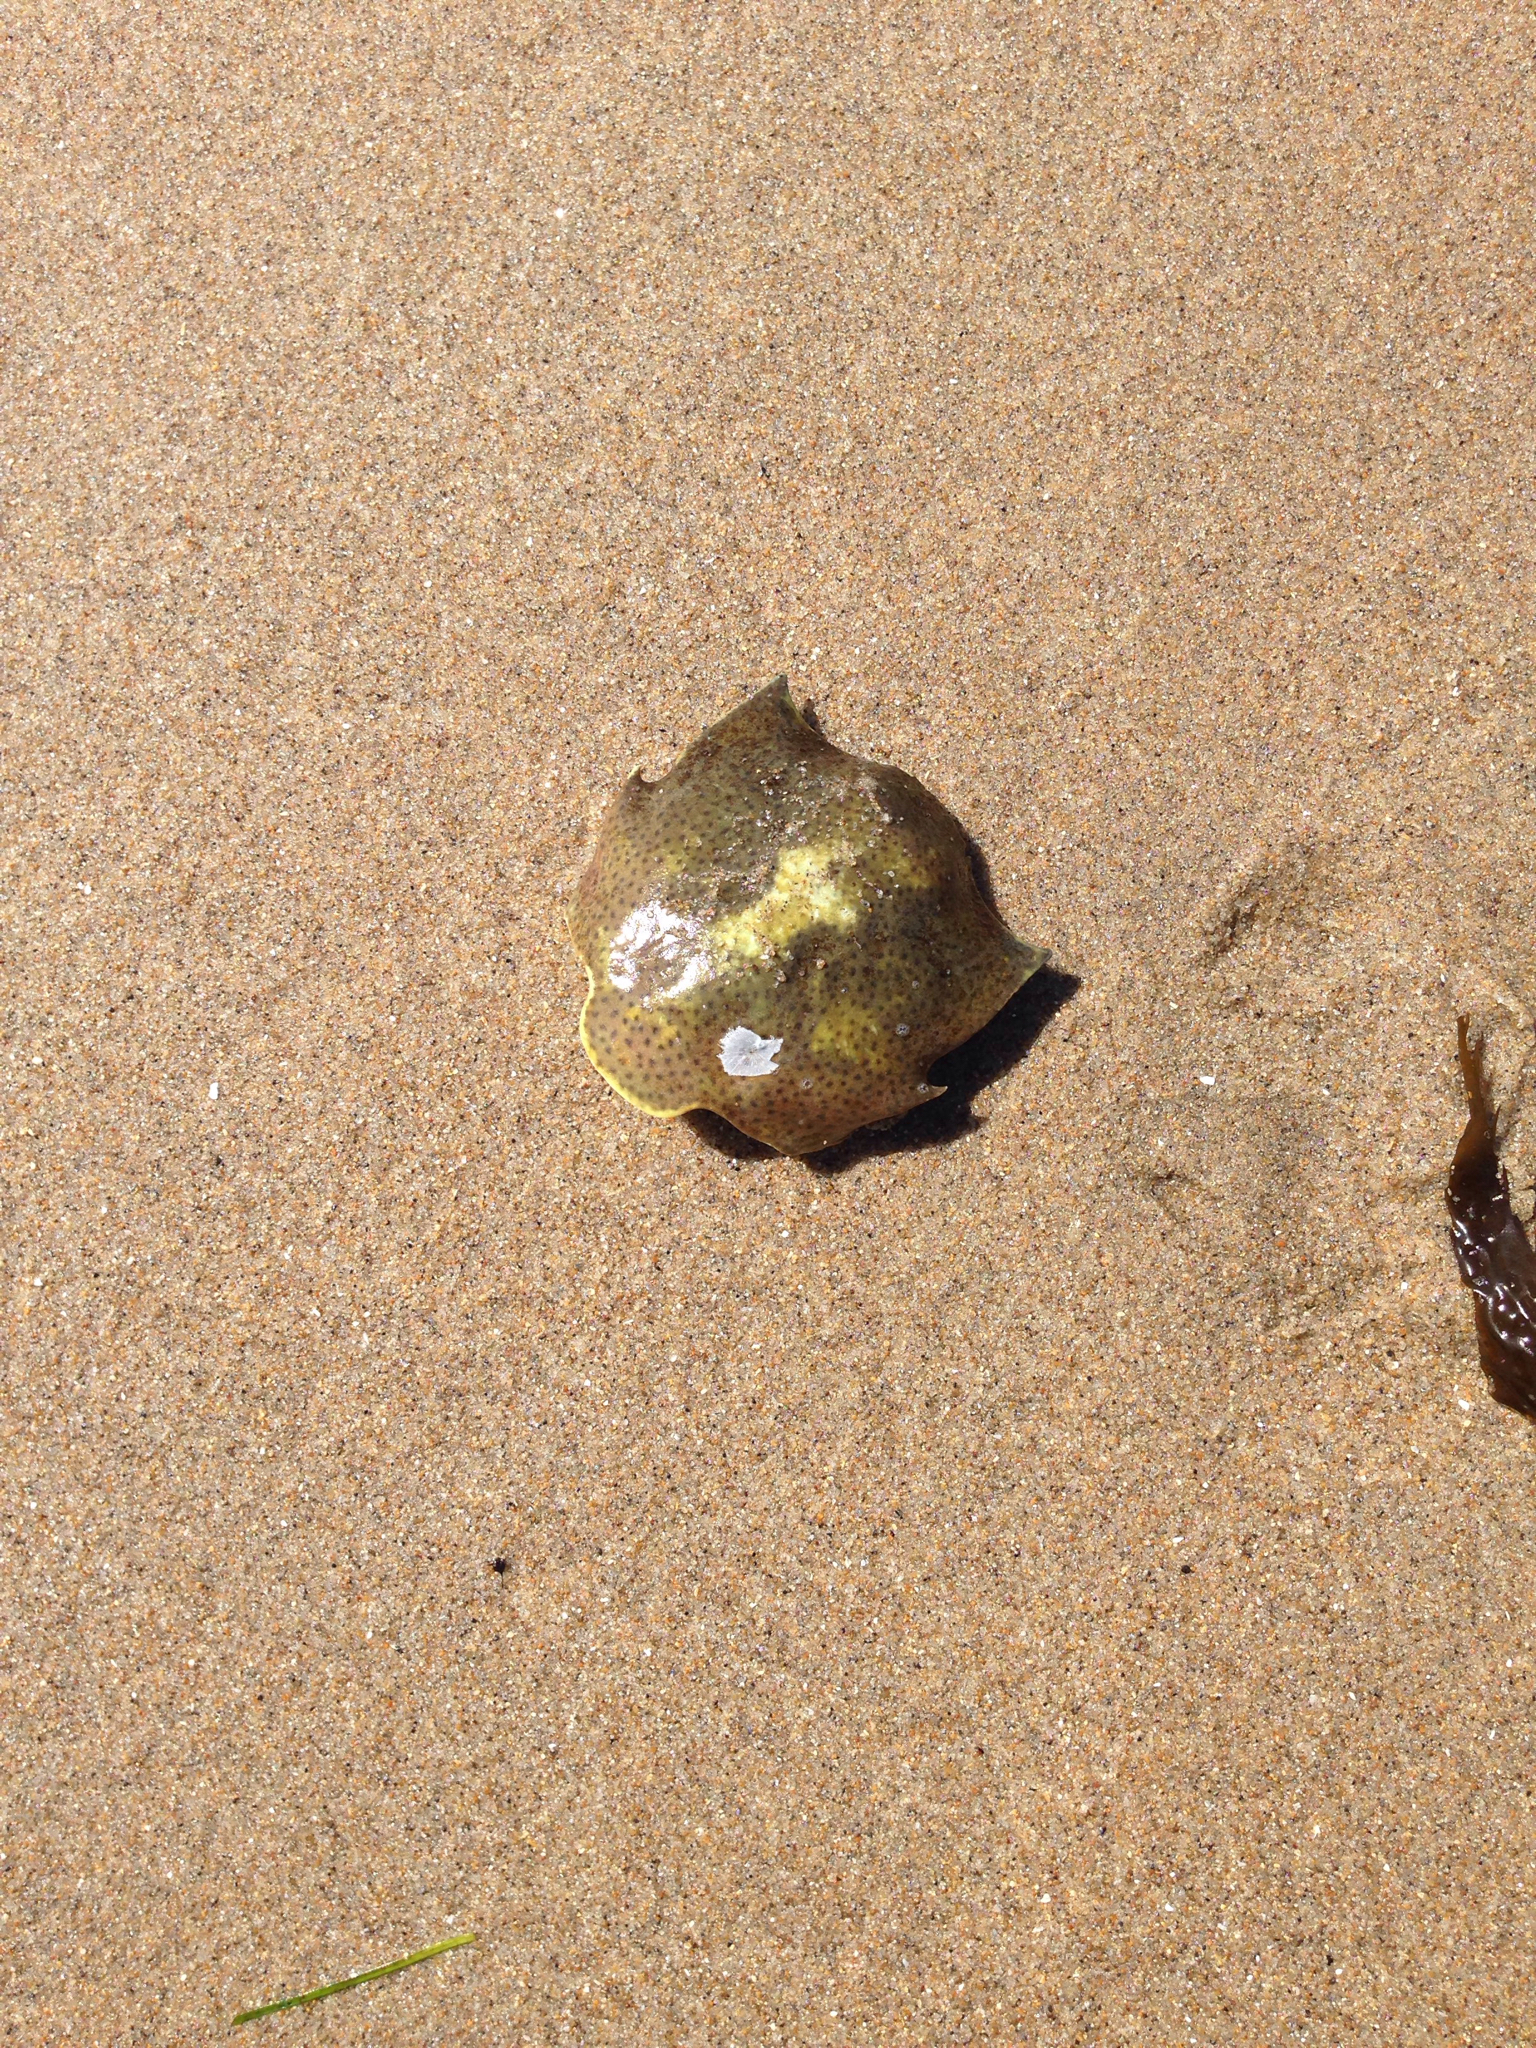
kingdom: Animalia
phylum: Arthropoda
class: Malacostraca
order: Decapoda
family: Epialtidae
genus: Pugettia
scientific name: Pugettia producta
